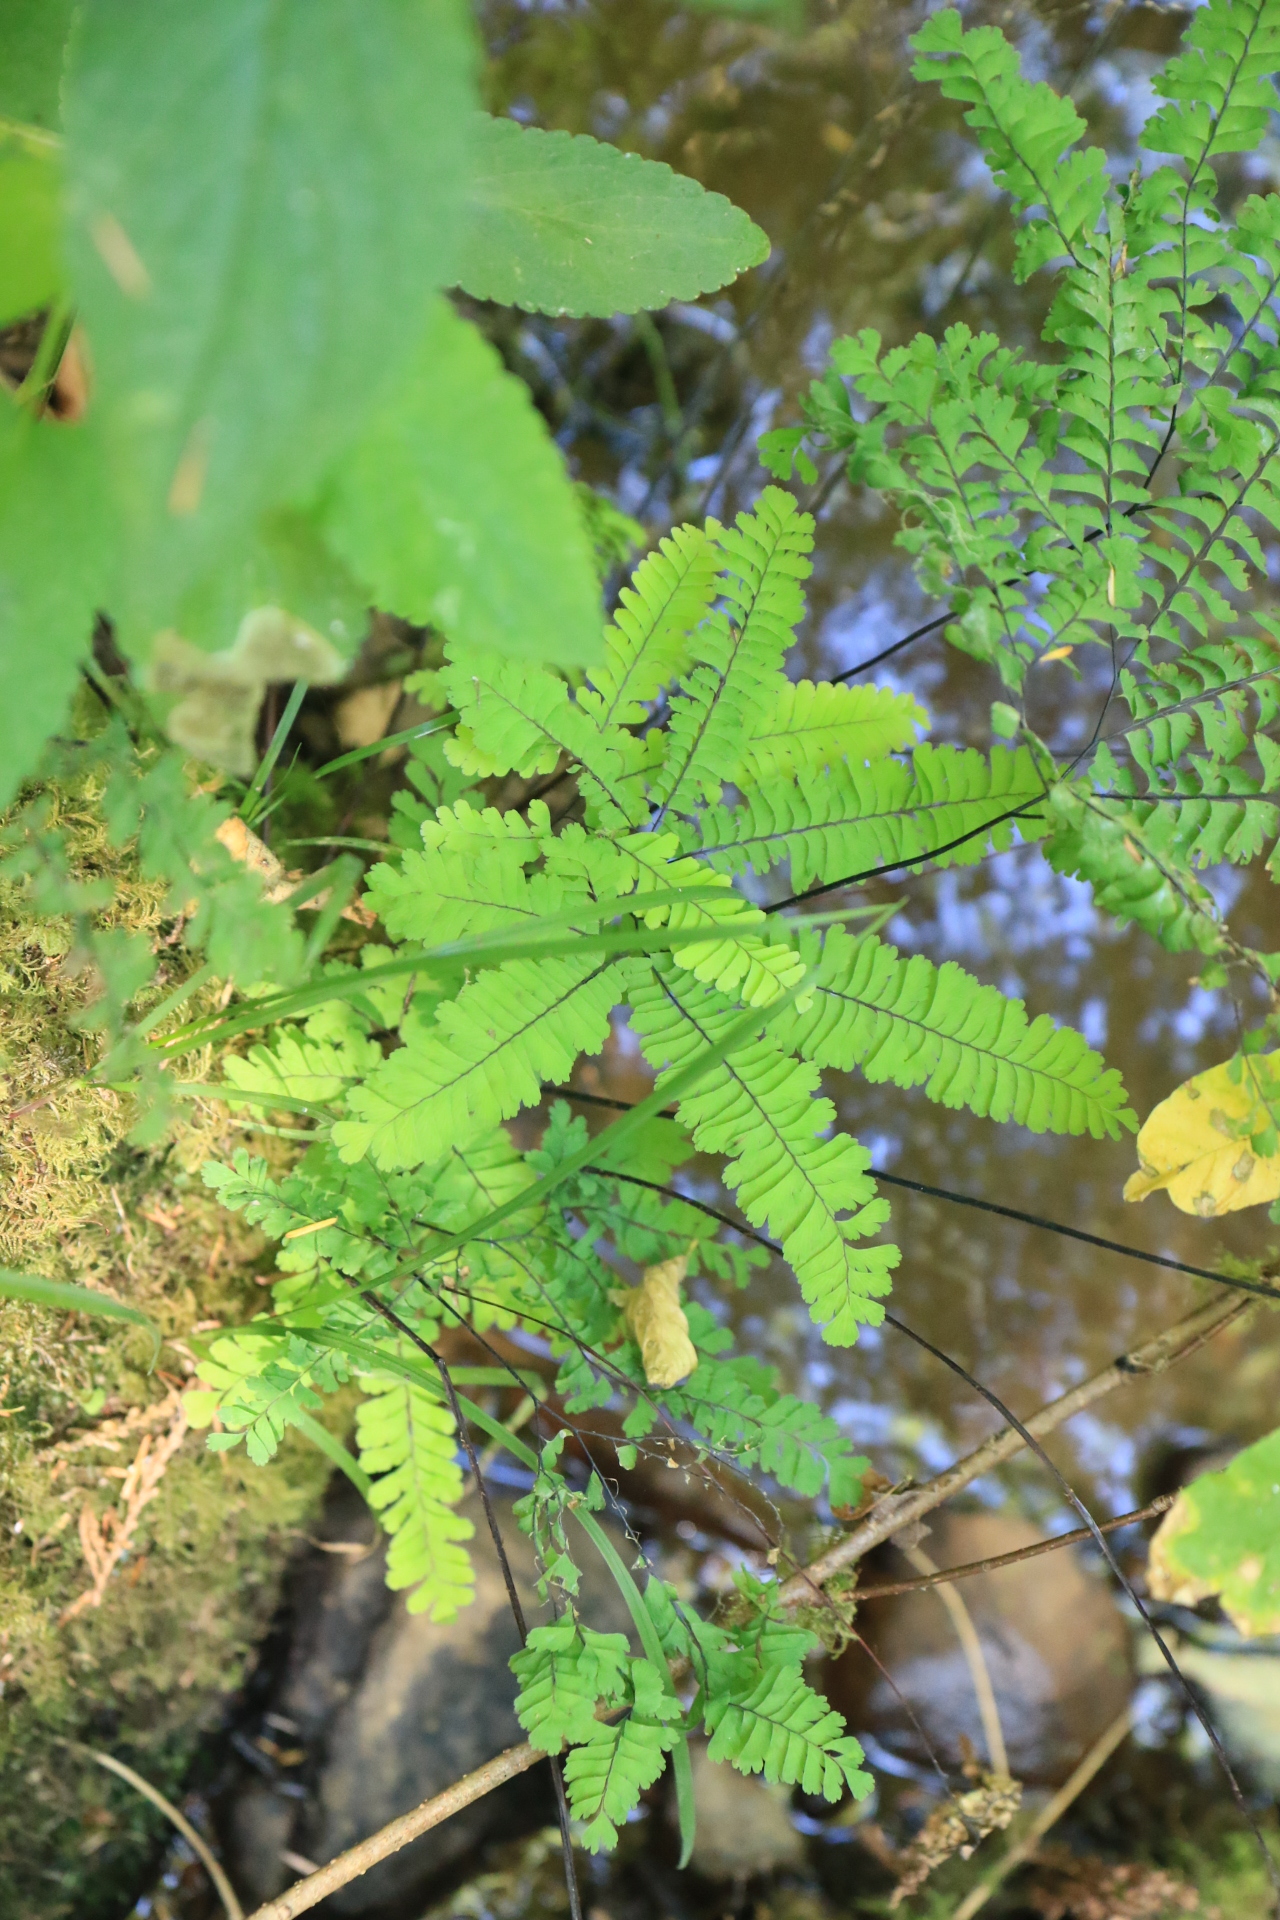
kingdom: Plantae
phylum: Tracheophyta
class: Polypodiopsida
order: Polypodiales
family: Pteridaceae
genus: Adiantum
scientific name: Adiantum aleuticum
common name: Aleutian maidenhair fern
